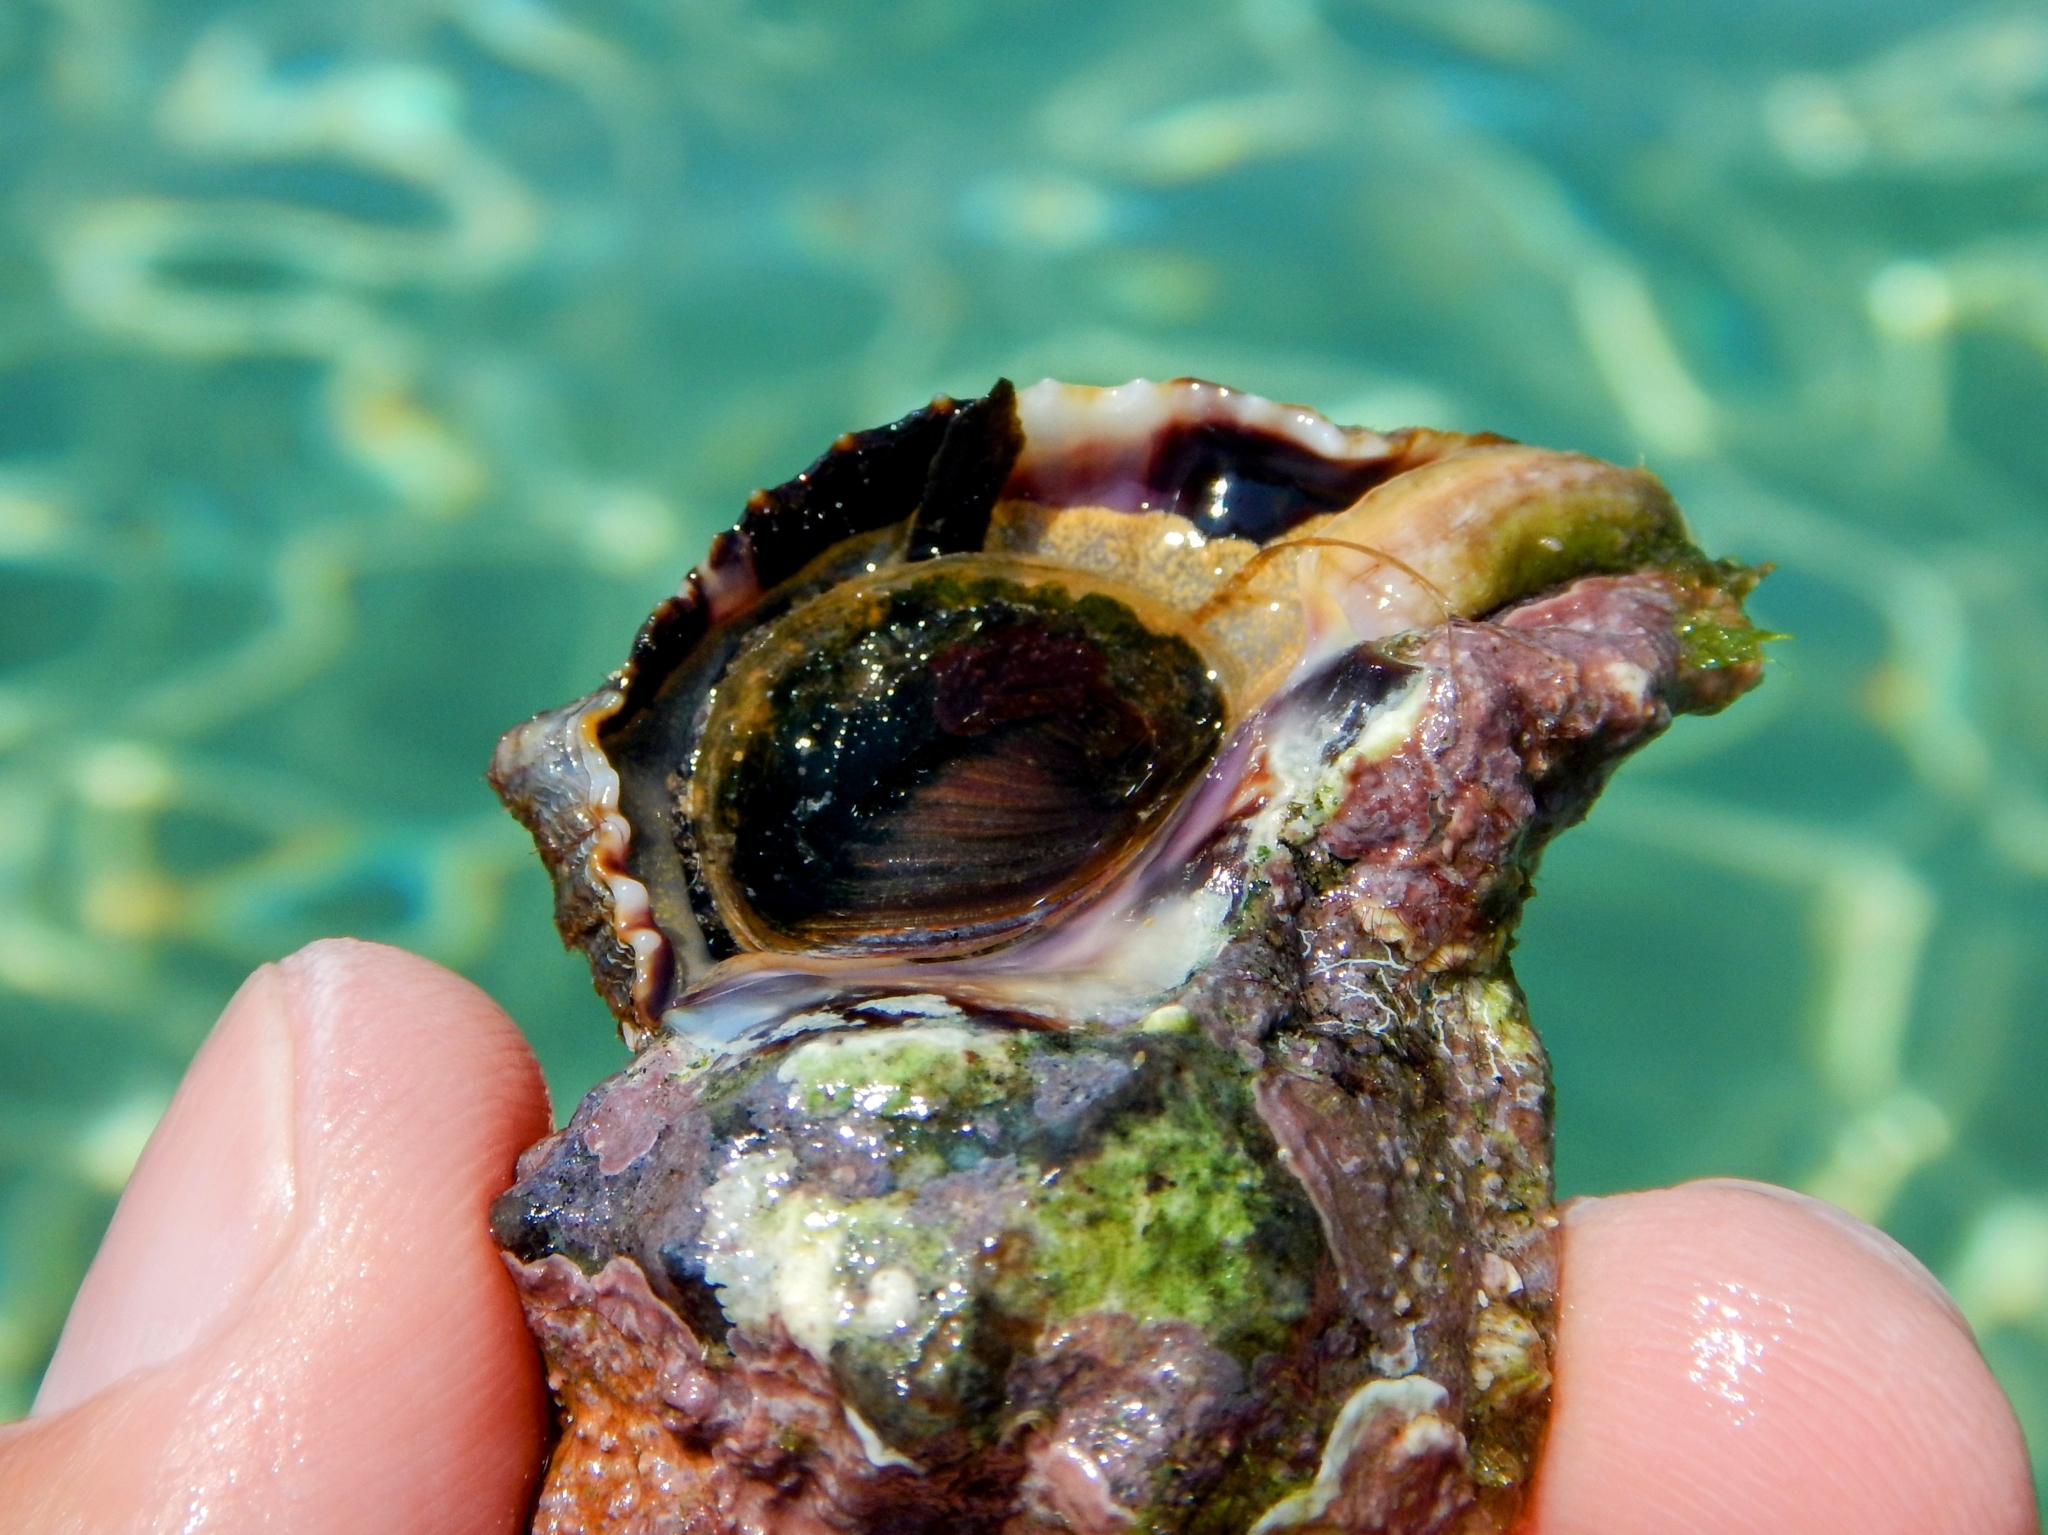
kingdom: Animalia
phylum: Mollusca
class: Gastropoda
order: Neogastropoda
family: Muricidae
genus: Hexaplex
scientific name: Hexaplex trunculus
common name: Banded dye-murex
